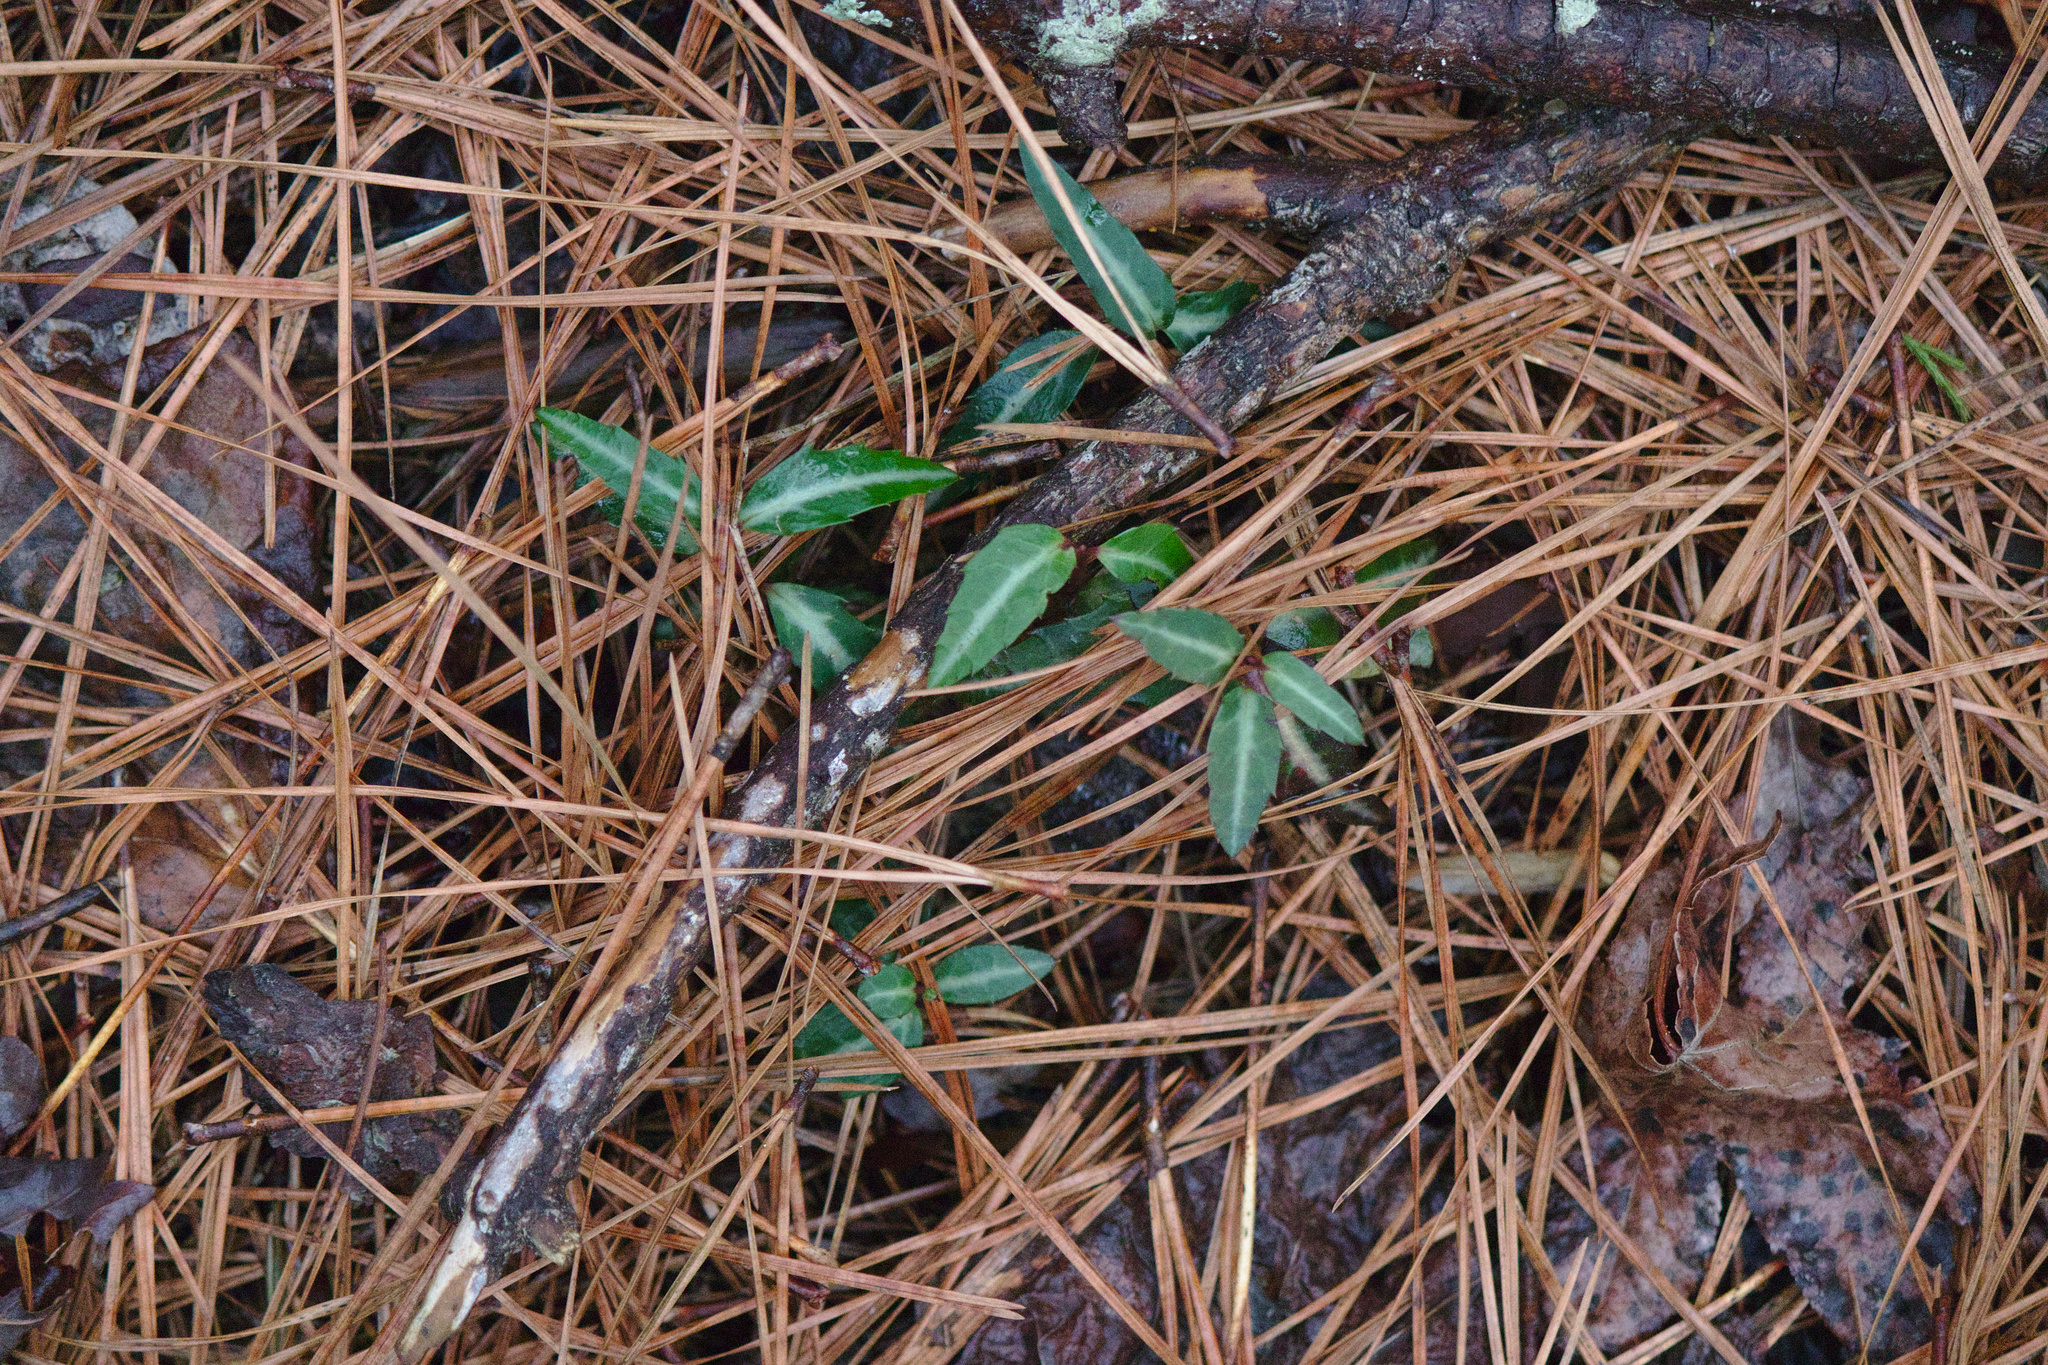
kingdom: Plantae
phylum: Tracheophyta
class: Magnoliopsida
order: Ericales
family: Ericaceae
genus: Chimaphila
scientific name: Chimaphila maculata
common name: Spotted pipsissewa
